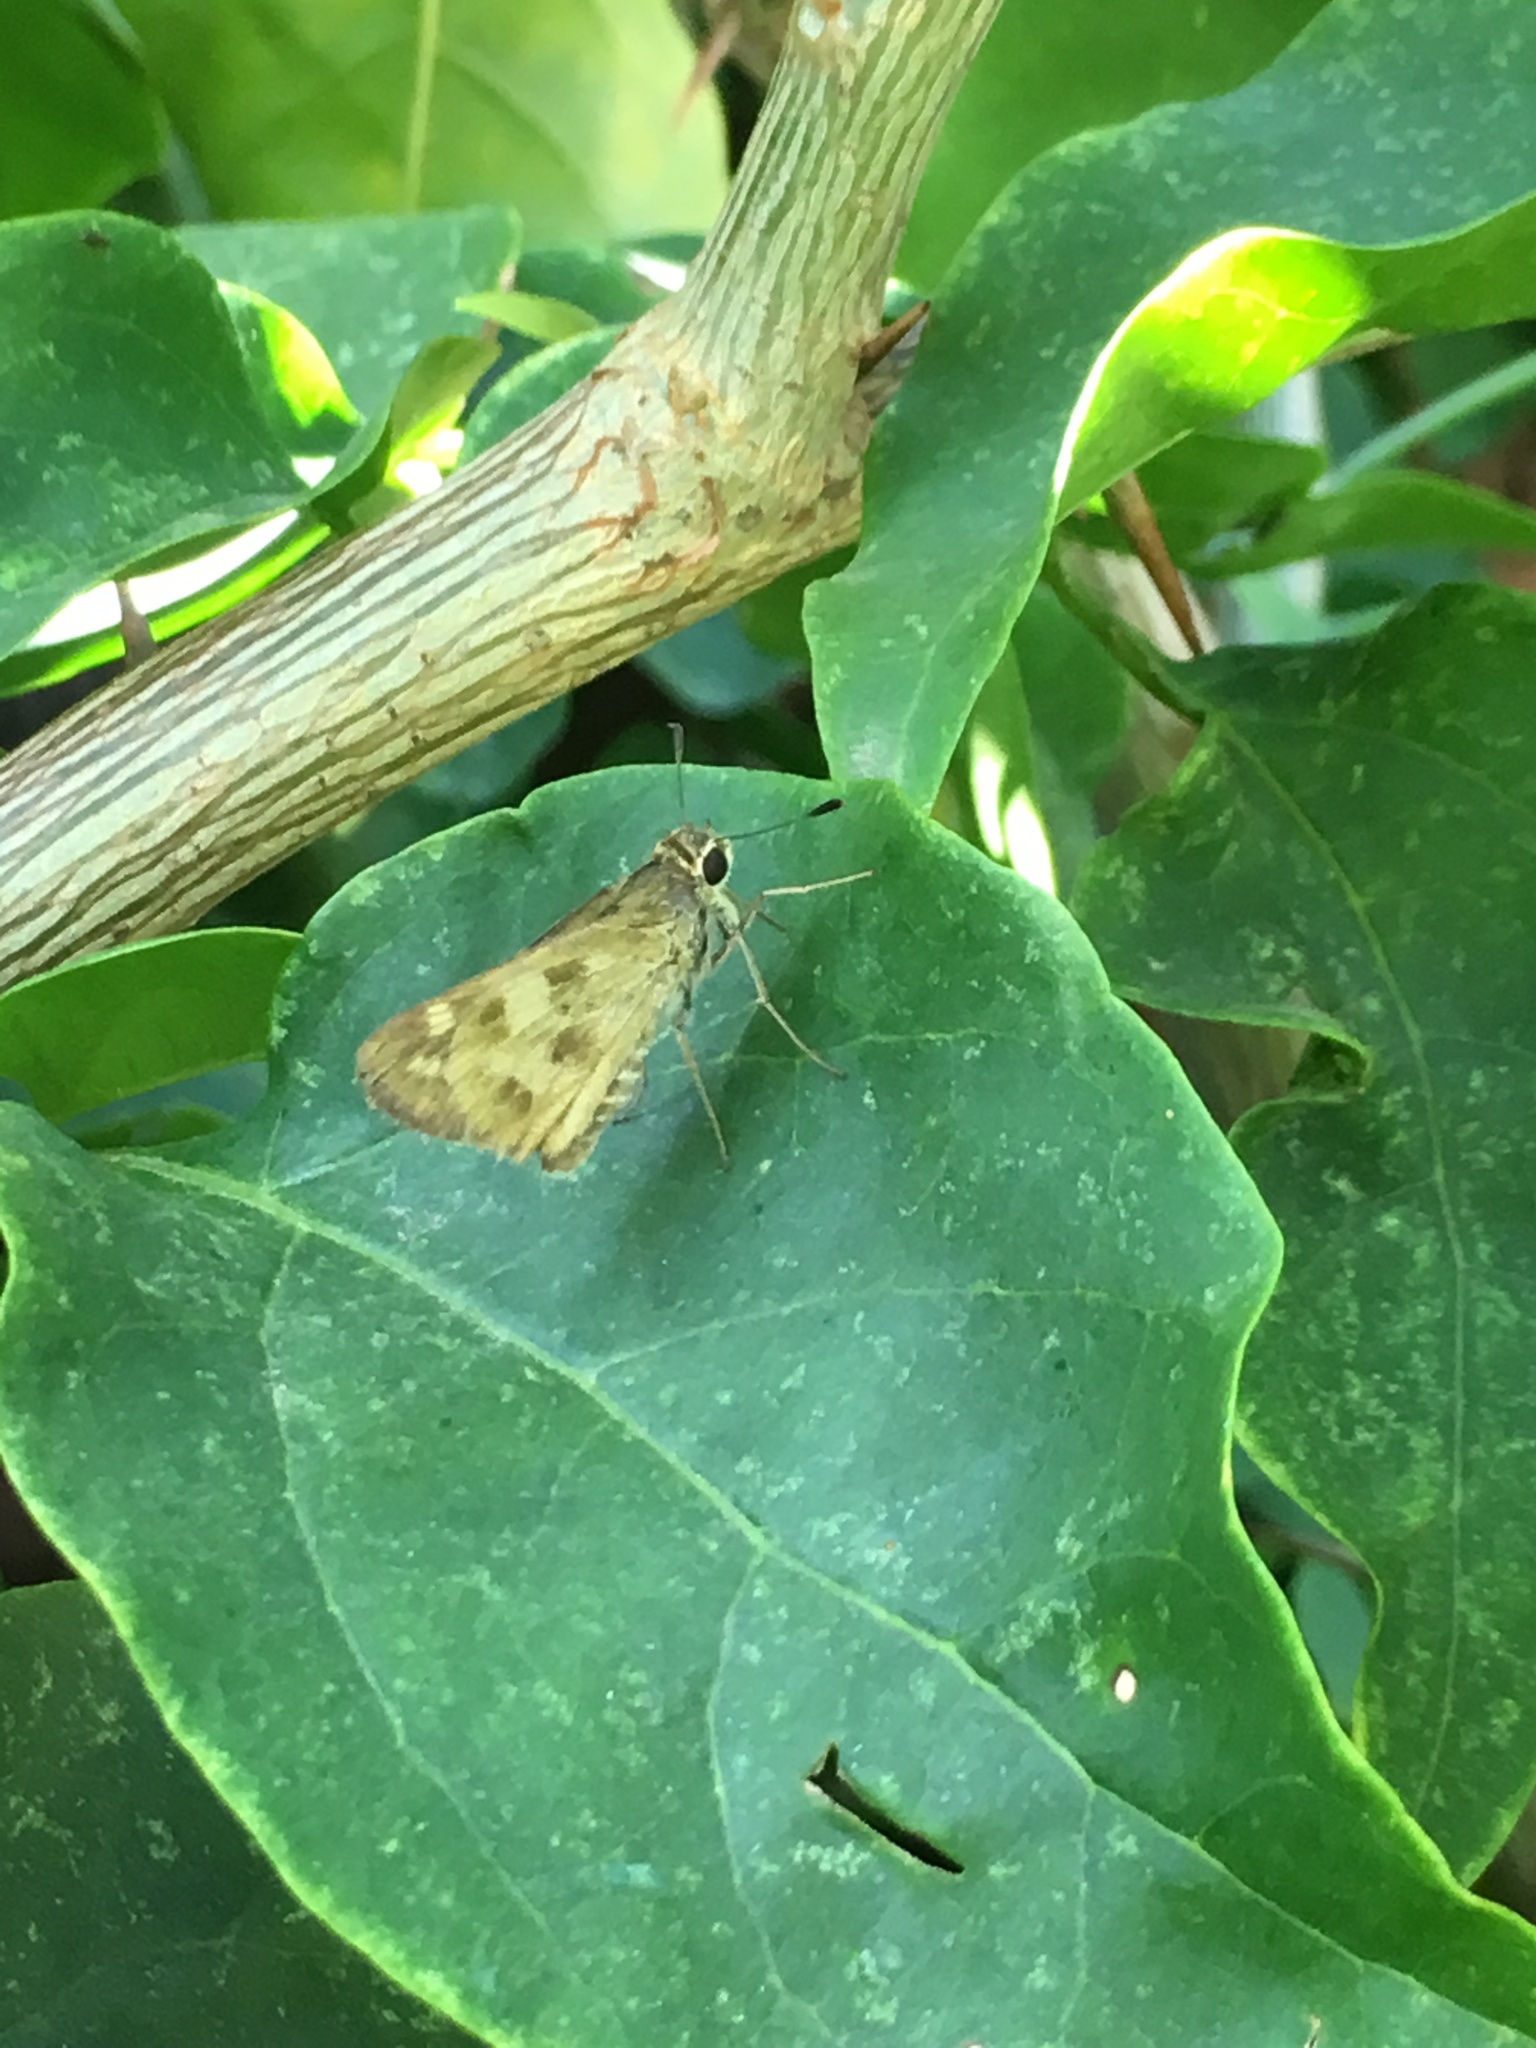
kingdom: Animalia
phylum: Arthropoda
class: Insecta
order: Lepidoptera
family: Hesperiidae
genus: Polites
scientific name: Polites vibex
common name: Whirlabout
